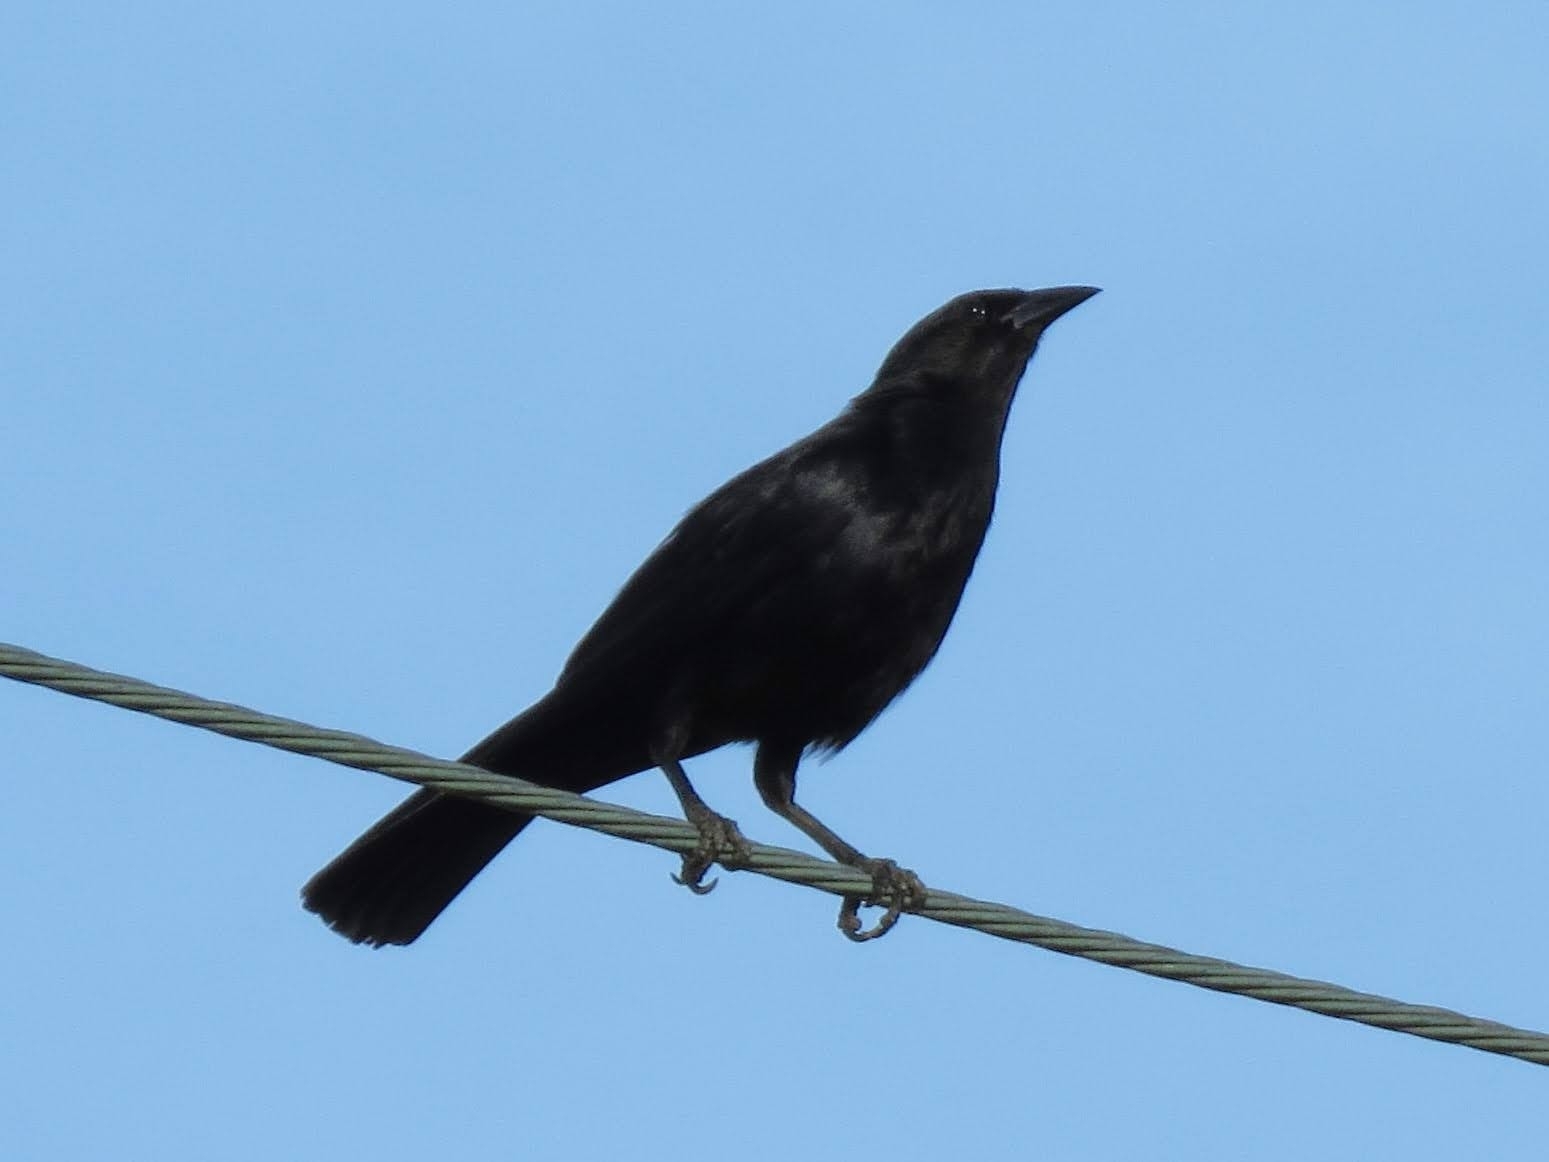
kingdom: Animalia
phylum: Chordata
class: Aves
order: Passeriformes
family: Icteridae
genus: Dives
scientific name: Dives atroviolaceus
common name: Cuban blackbird
